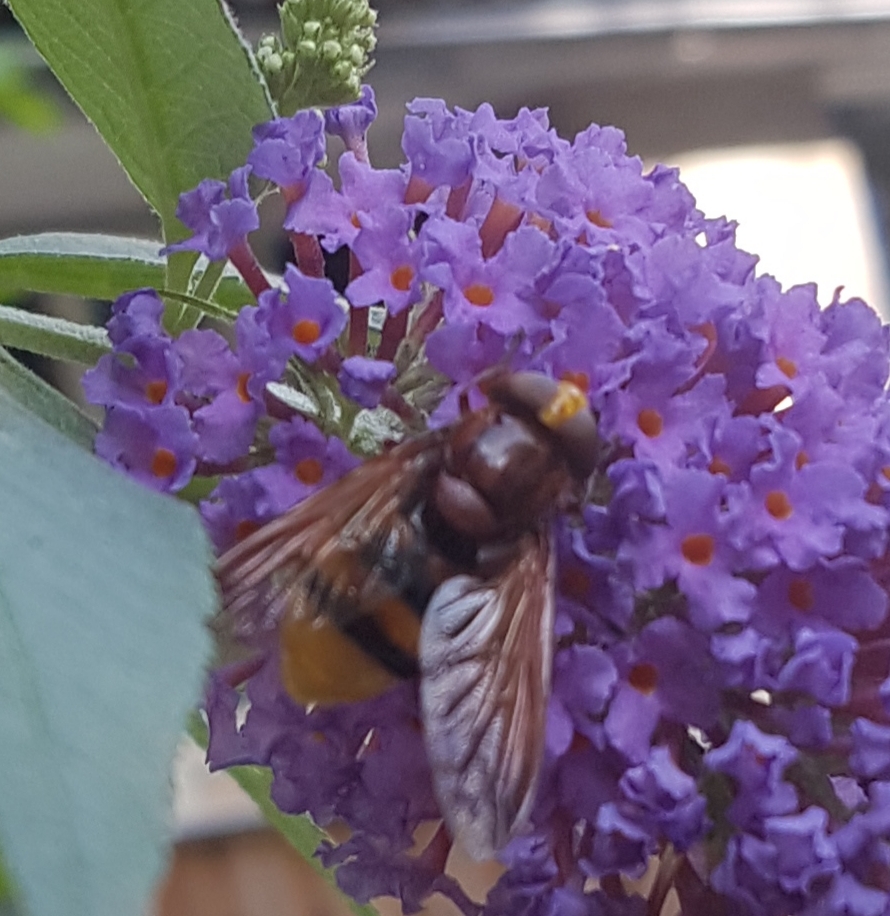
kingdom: Animalia
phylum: Arthropoda
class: Insecta
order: Diptera
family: Syrphidae
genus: Volucella
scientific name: Volucella zonaria
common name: Hornet hoverfly
